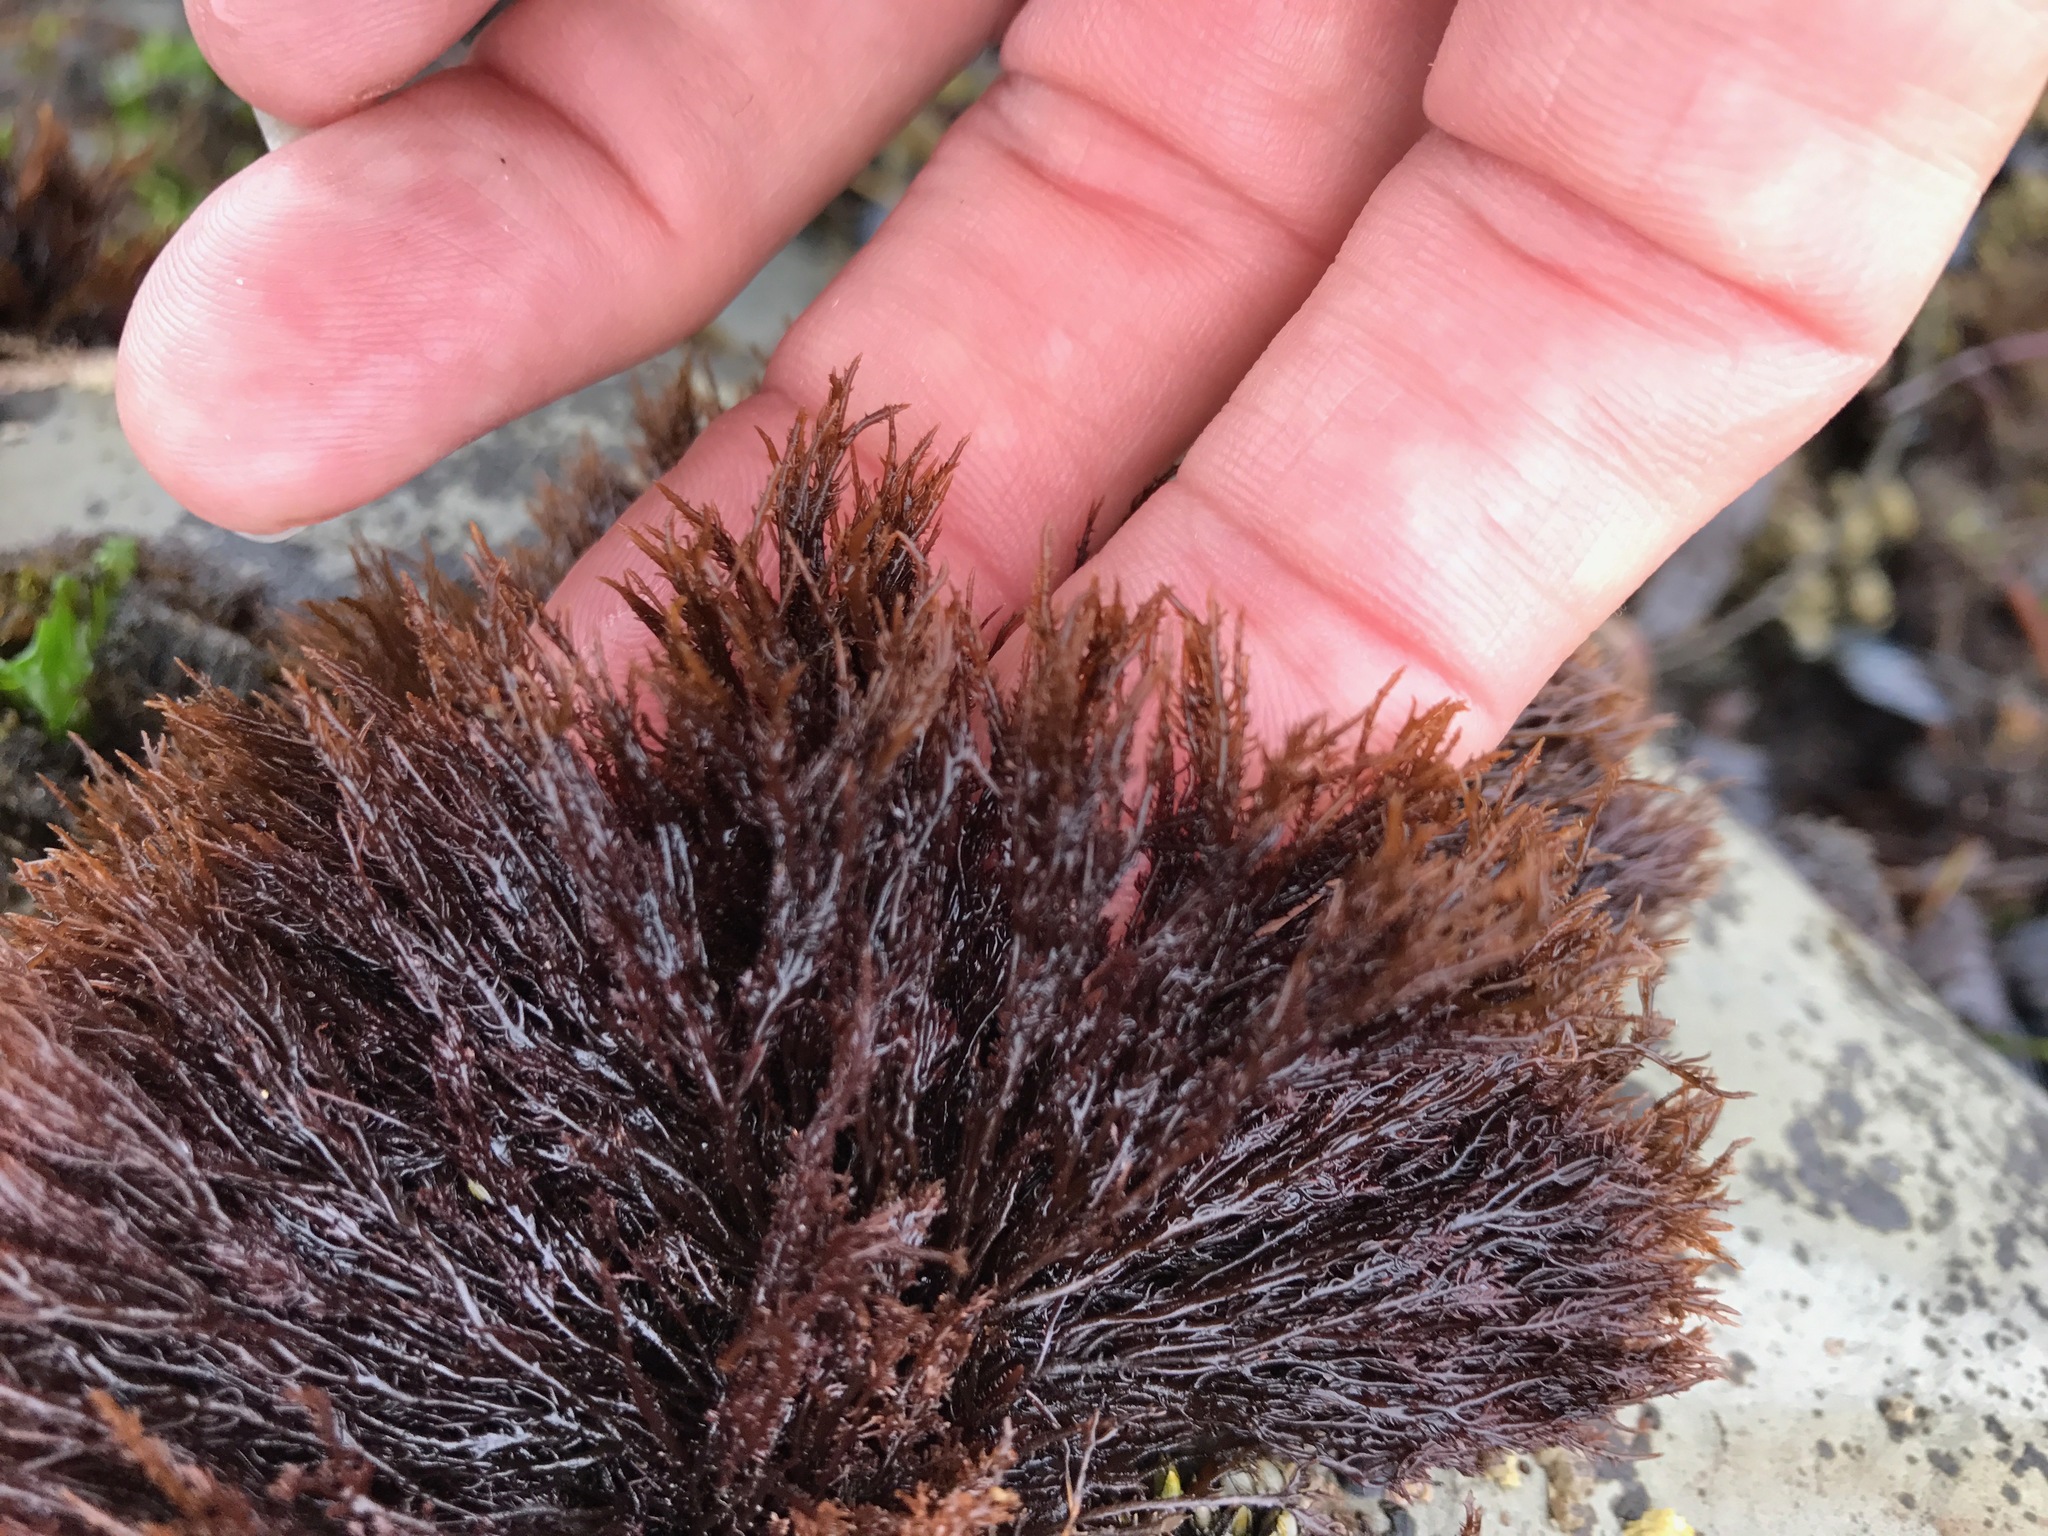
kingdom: Plantae
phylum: Rhodophyta
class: Florideophyceae
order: Gigartinales
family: Endocladiaceae
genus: Endocladia
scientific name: Endocladia muricata
